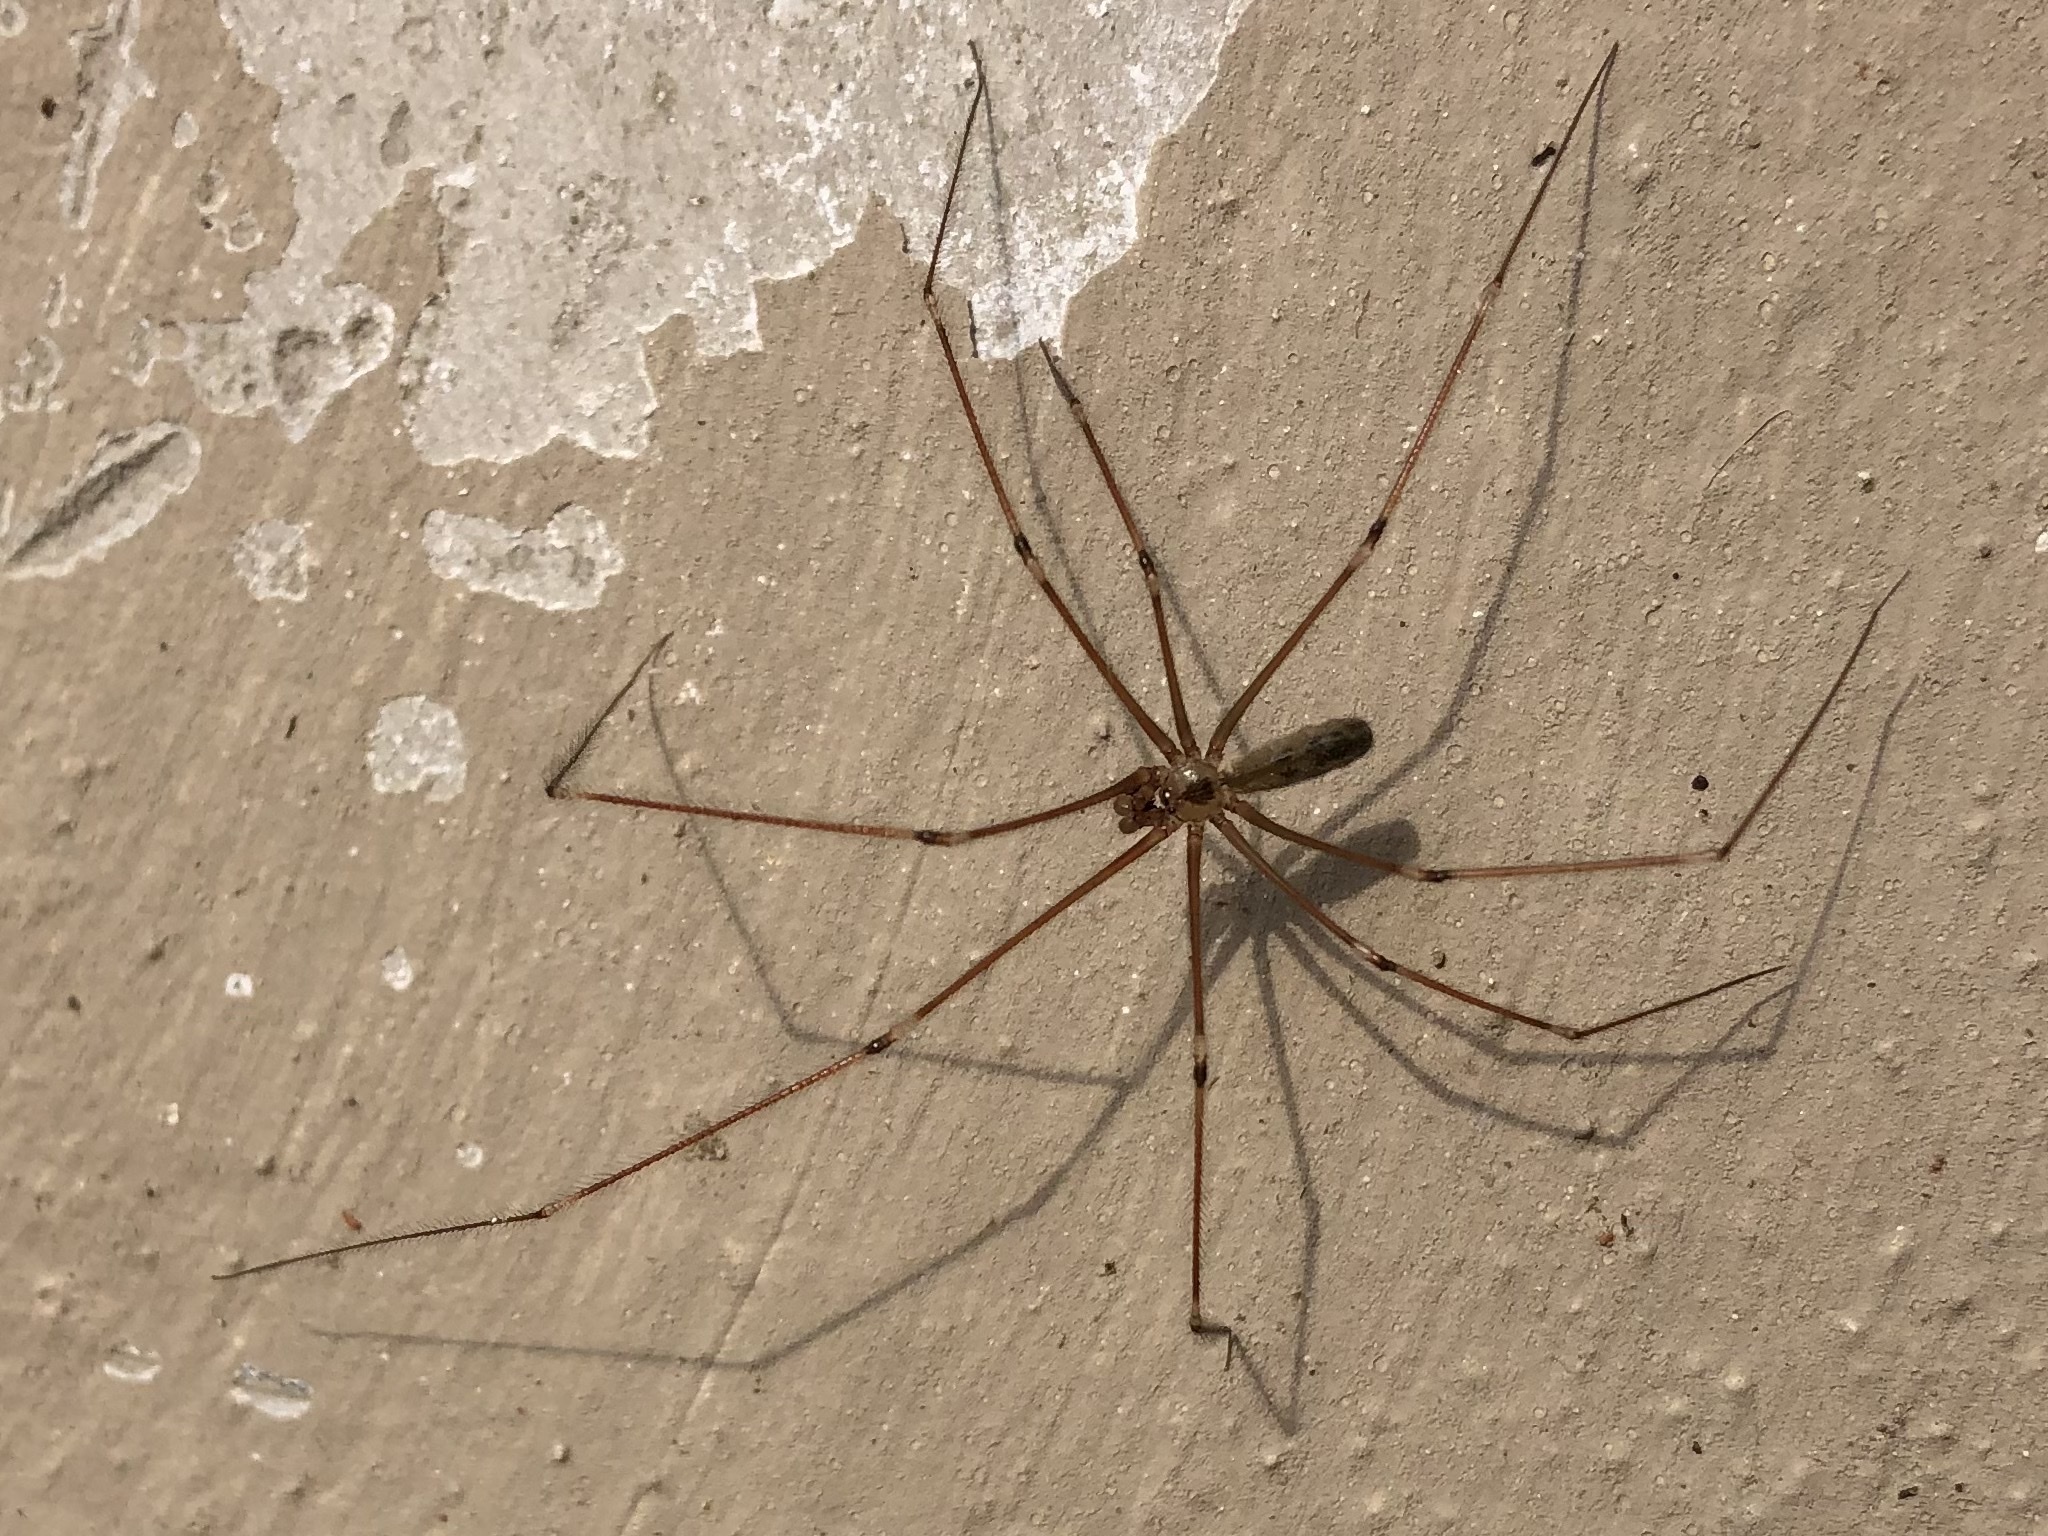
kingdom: Animalia
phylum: Arthropoda
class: Arachnida
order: Araneae
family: Pholcidae
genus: Pholcus
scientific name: Pholcus phalangioides
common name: Longbodied cellar spider
